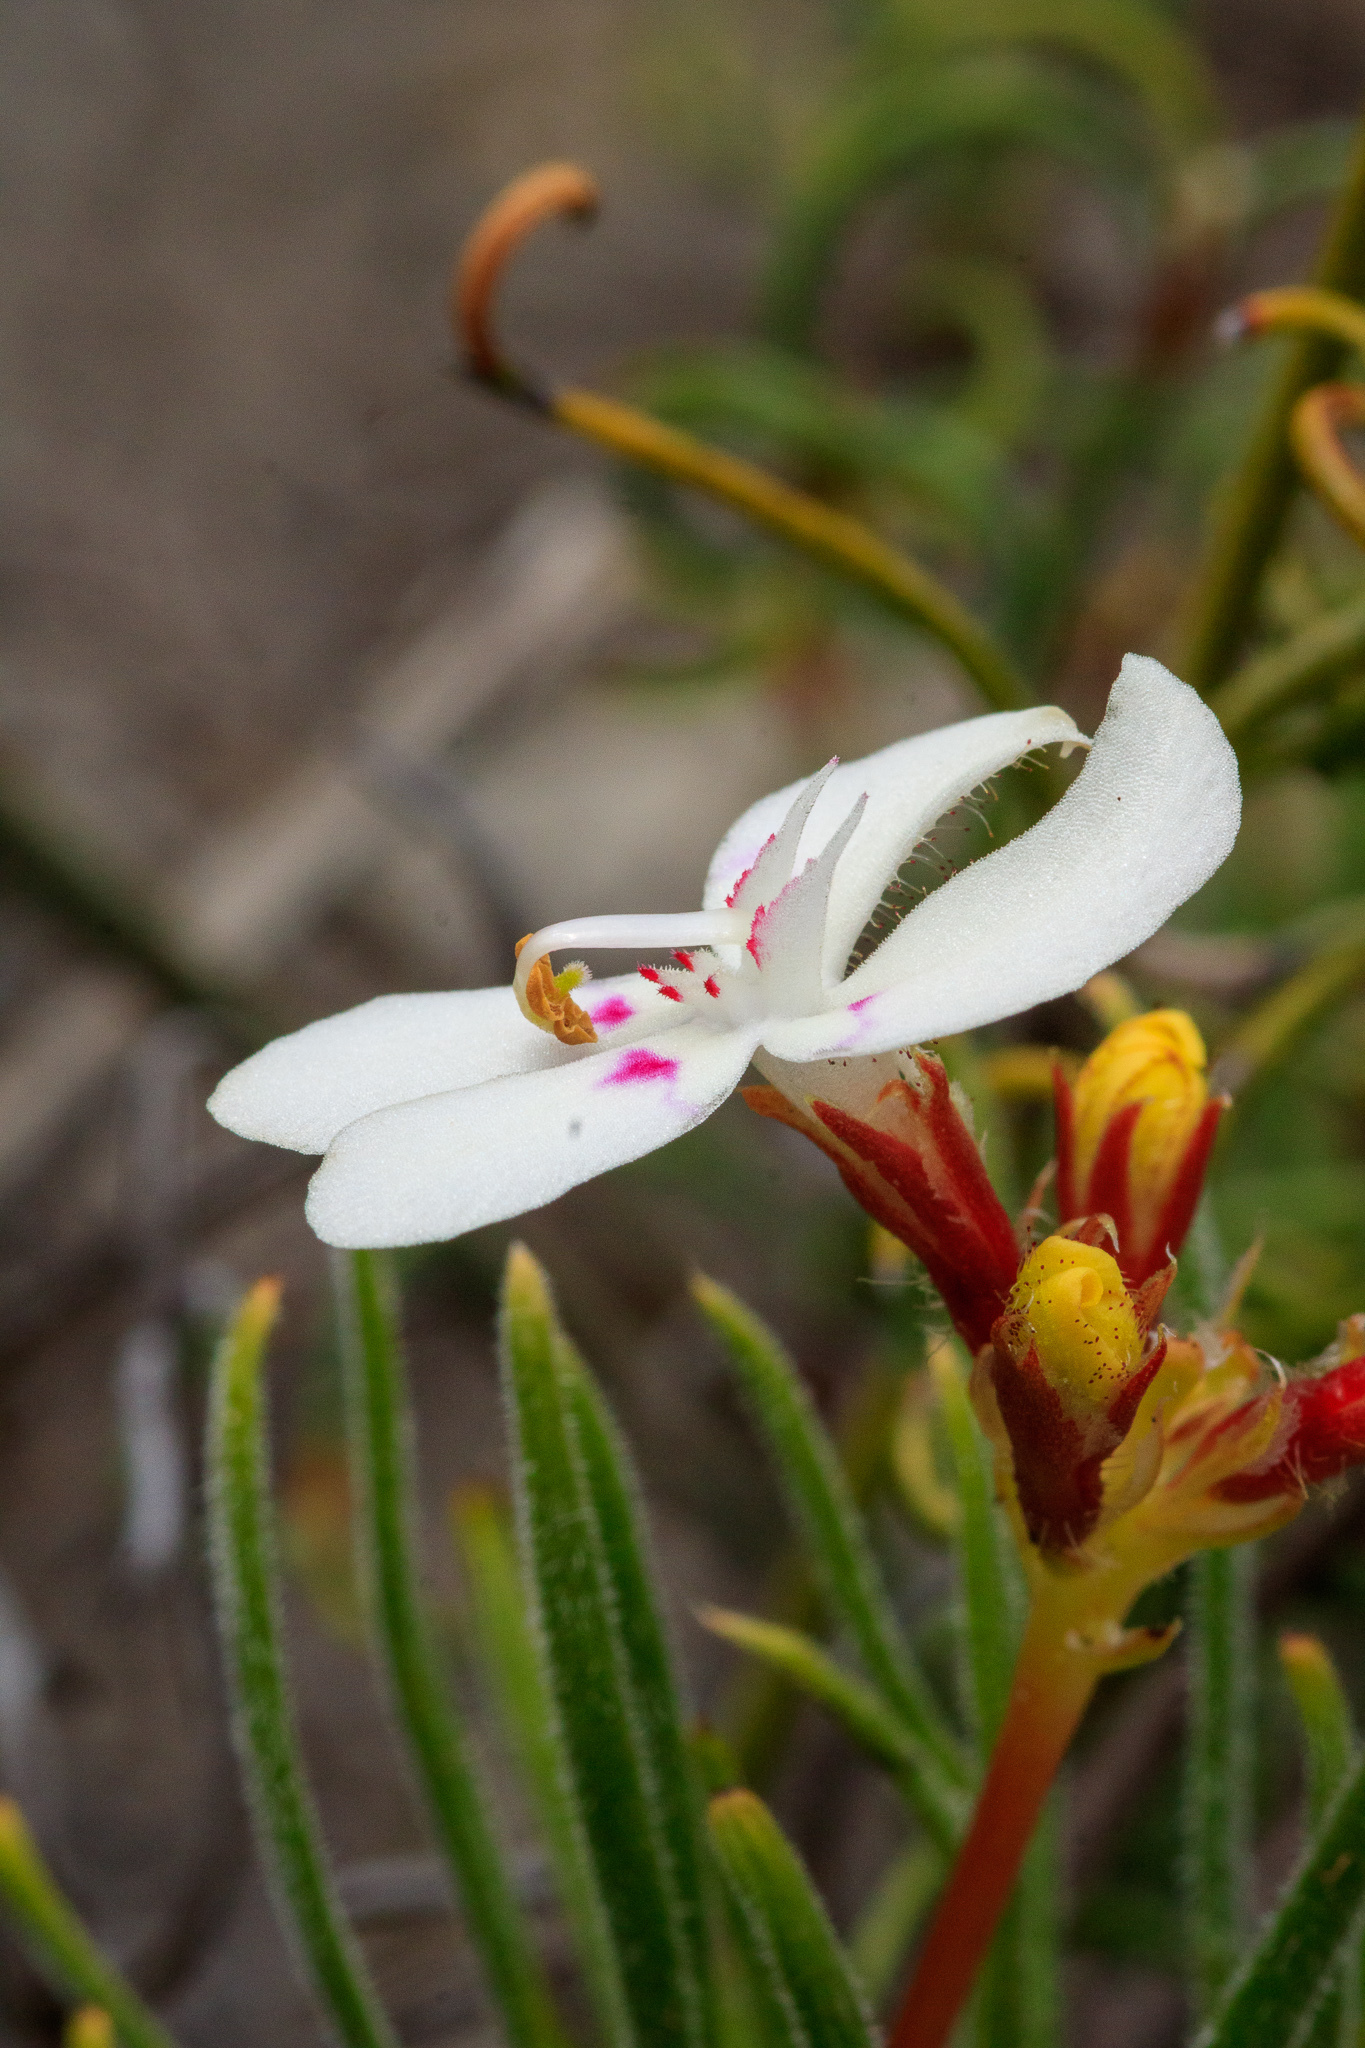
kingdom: Plantae
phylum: Tracheophyta
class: Magnoliopsida
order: Asterales
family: Stylidiaceae
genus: Stylidium
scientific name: Stylidium crossocephalum
